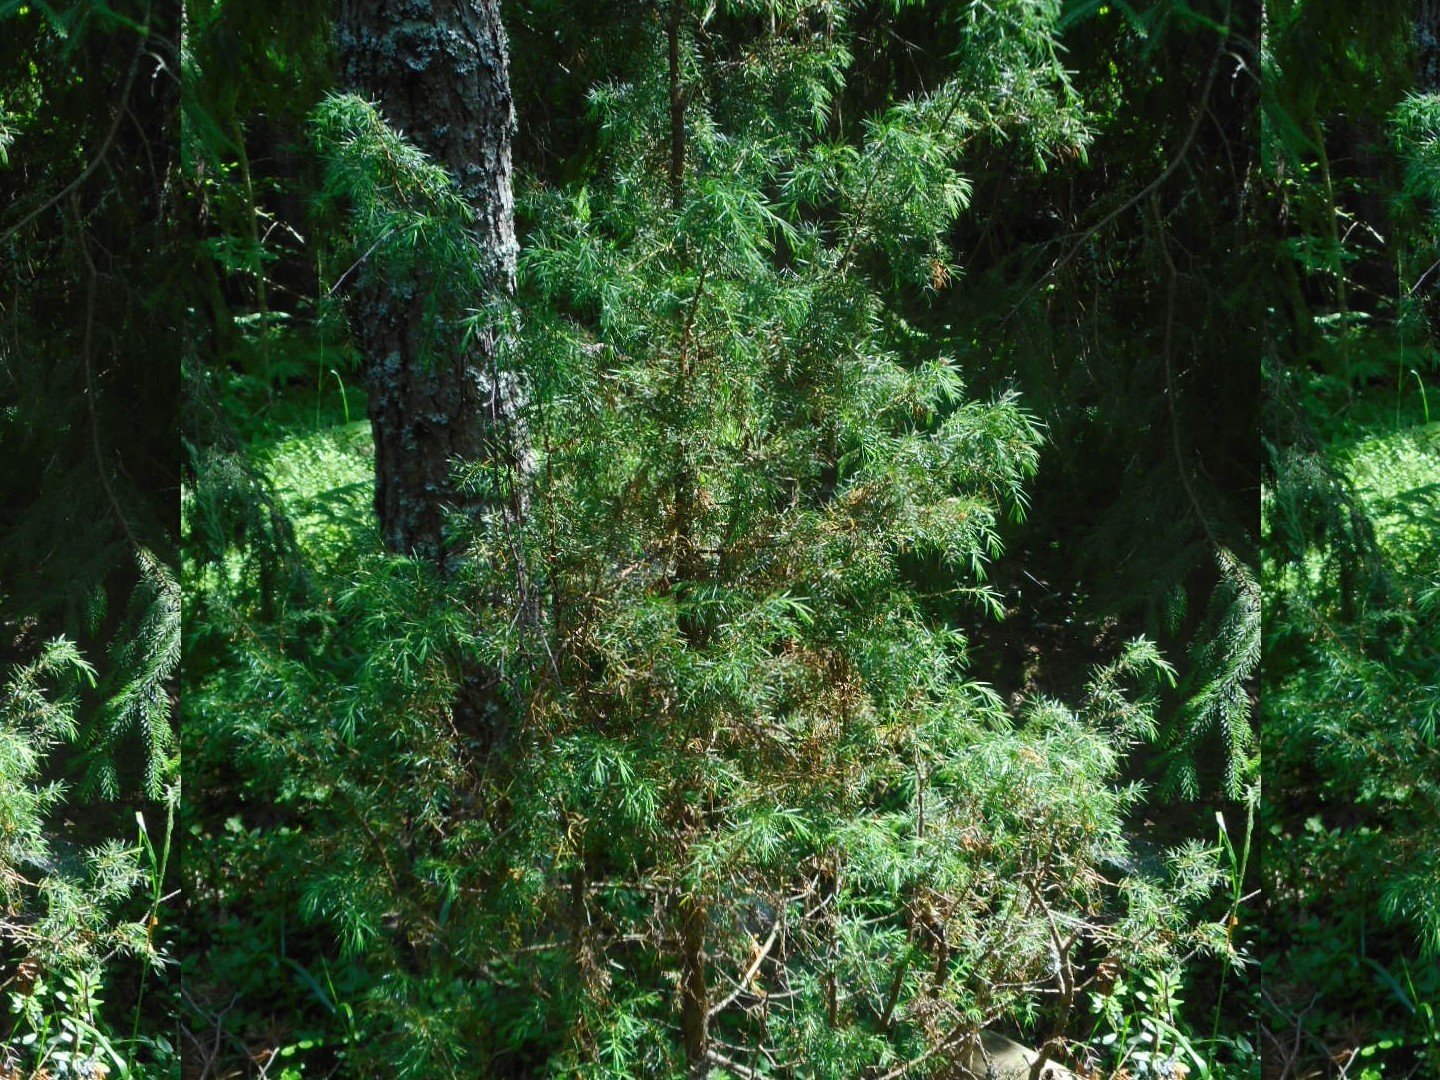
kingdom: Plantae
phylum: Tracheophyta
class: Pinopsida
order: Pinales
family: Cupressaceae
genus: Juniperus
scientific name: Juniperus communis
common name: Common juniper
